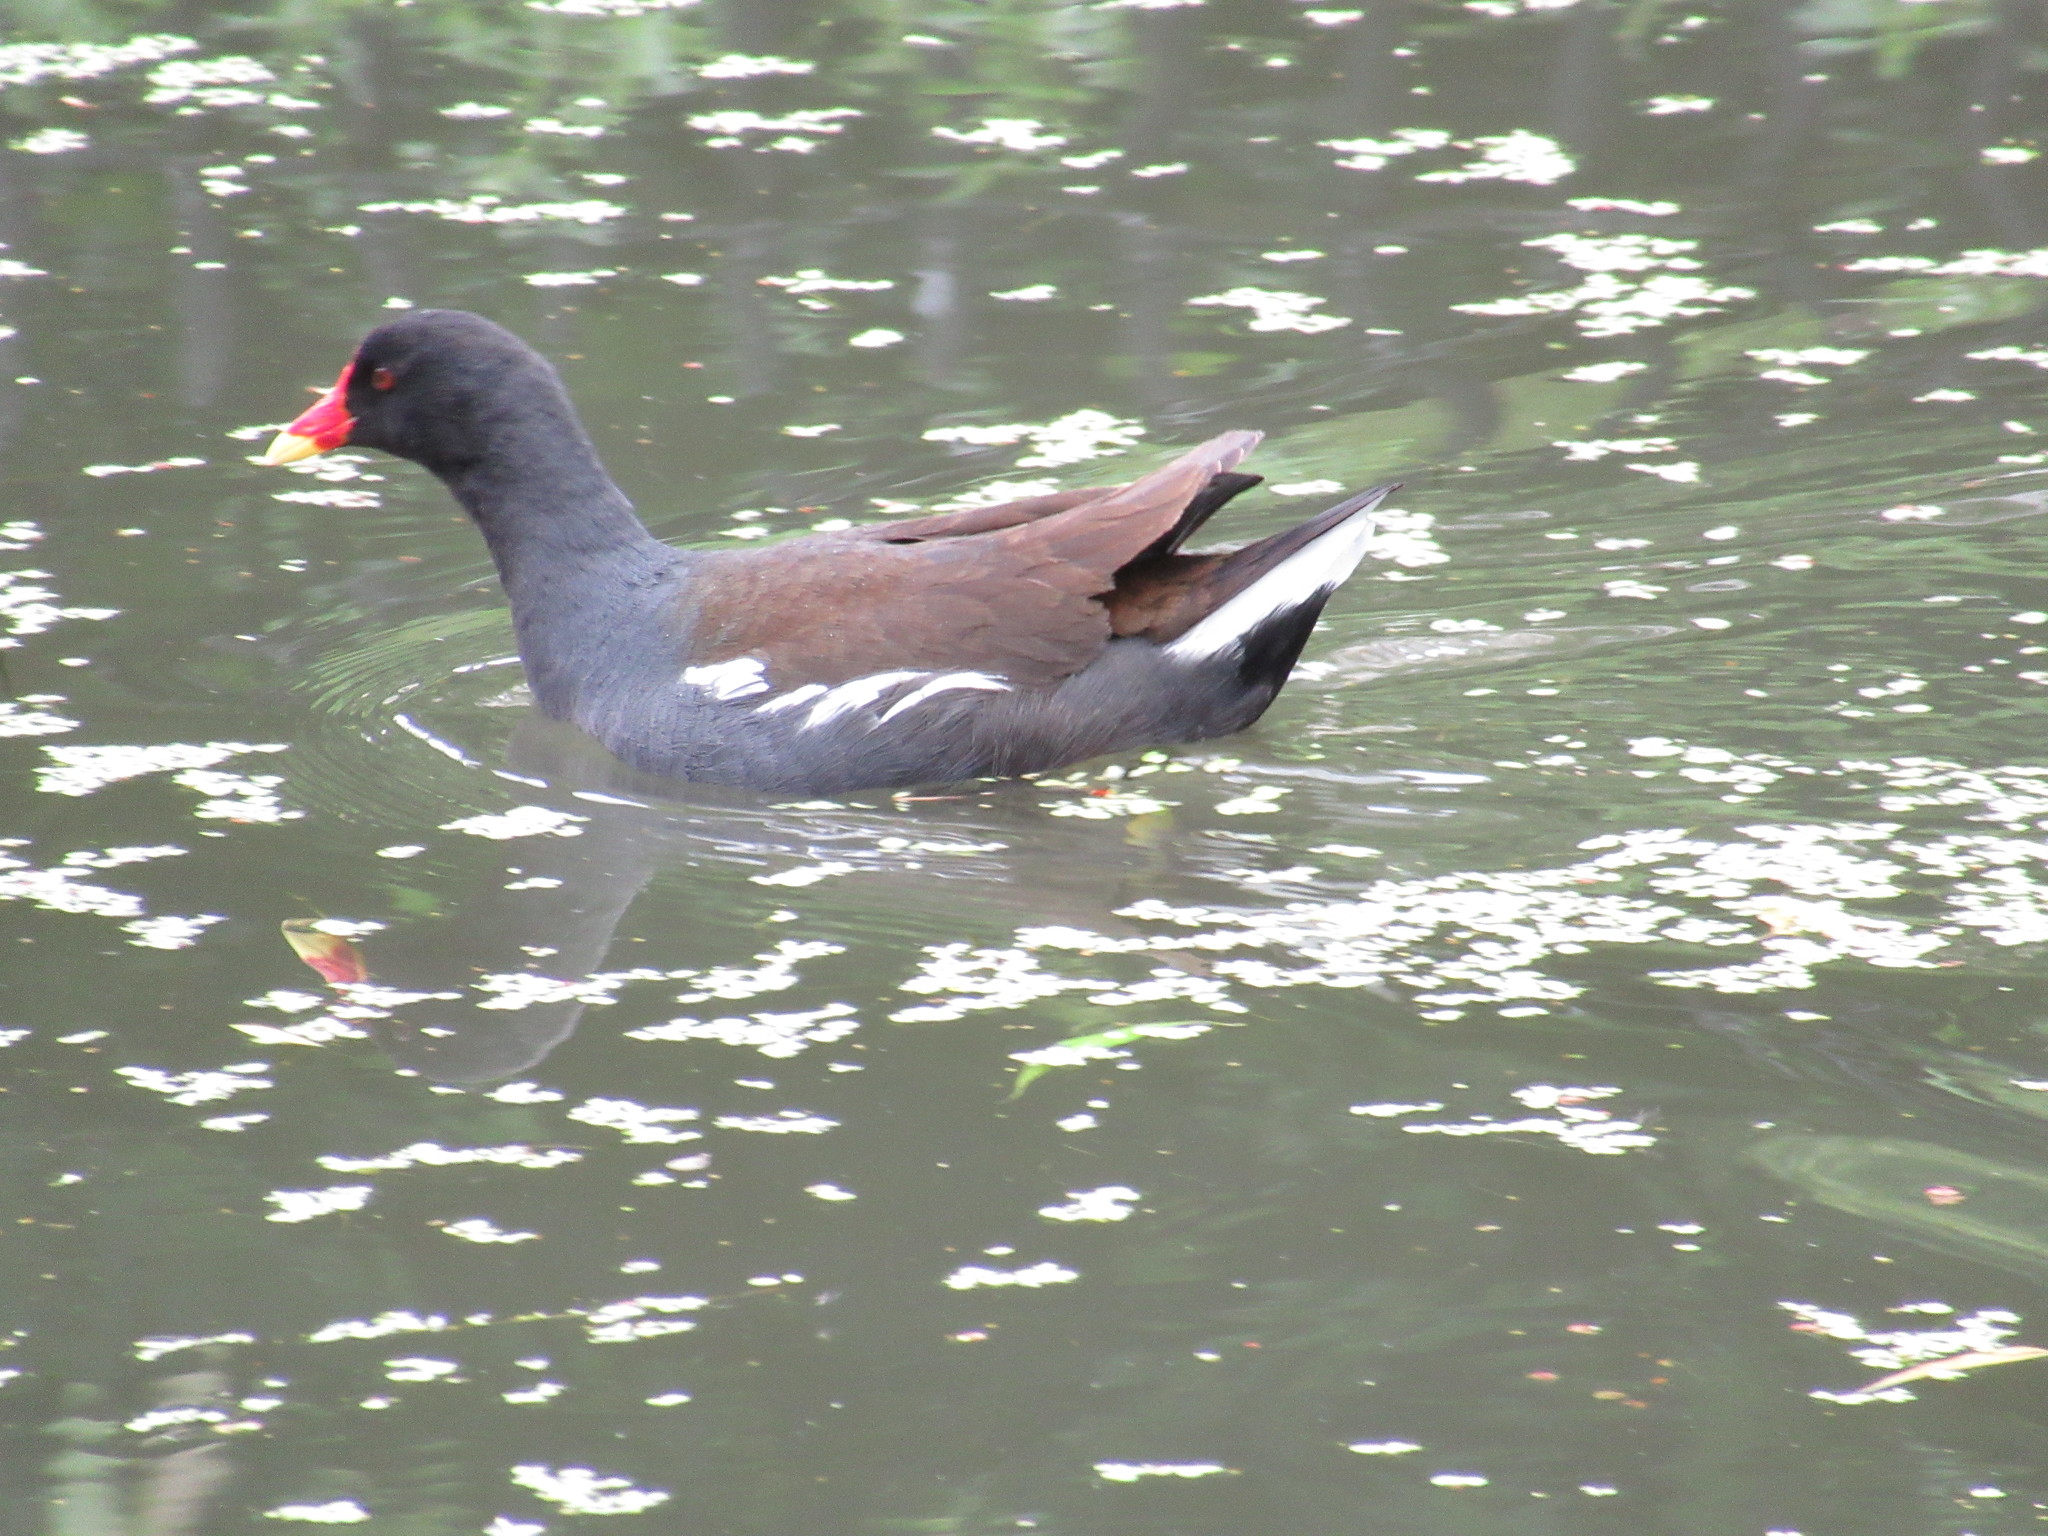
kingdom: Animalia
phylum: Chordata
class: Aves
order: Gruiformes
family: Rallidae
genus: Gallinula
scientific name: Gallinula chloropus
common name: Common moorhen
